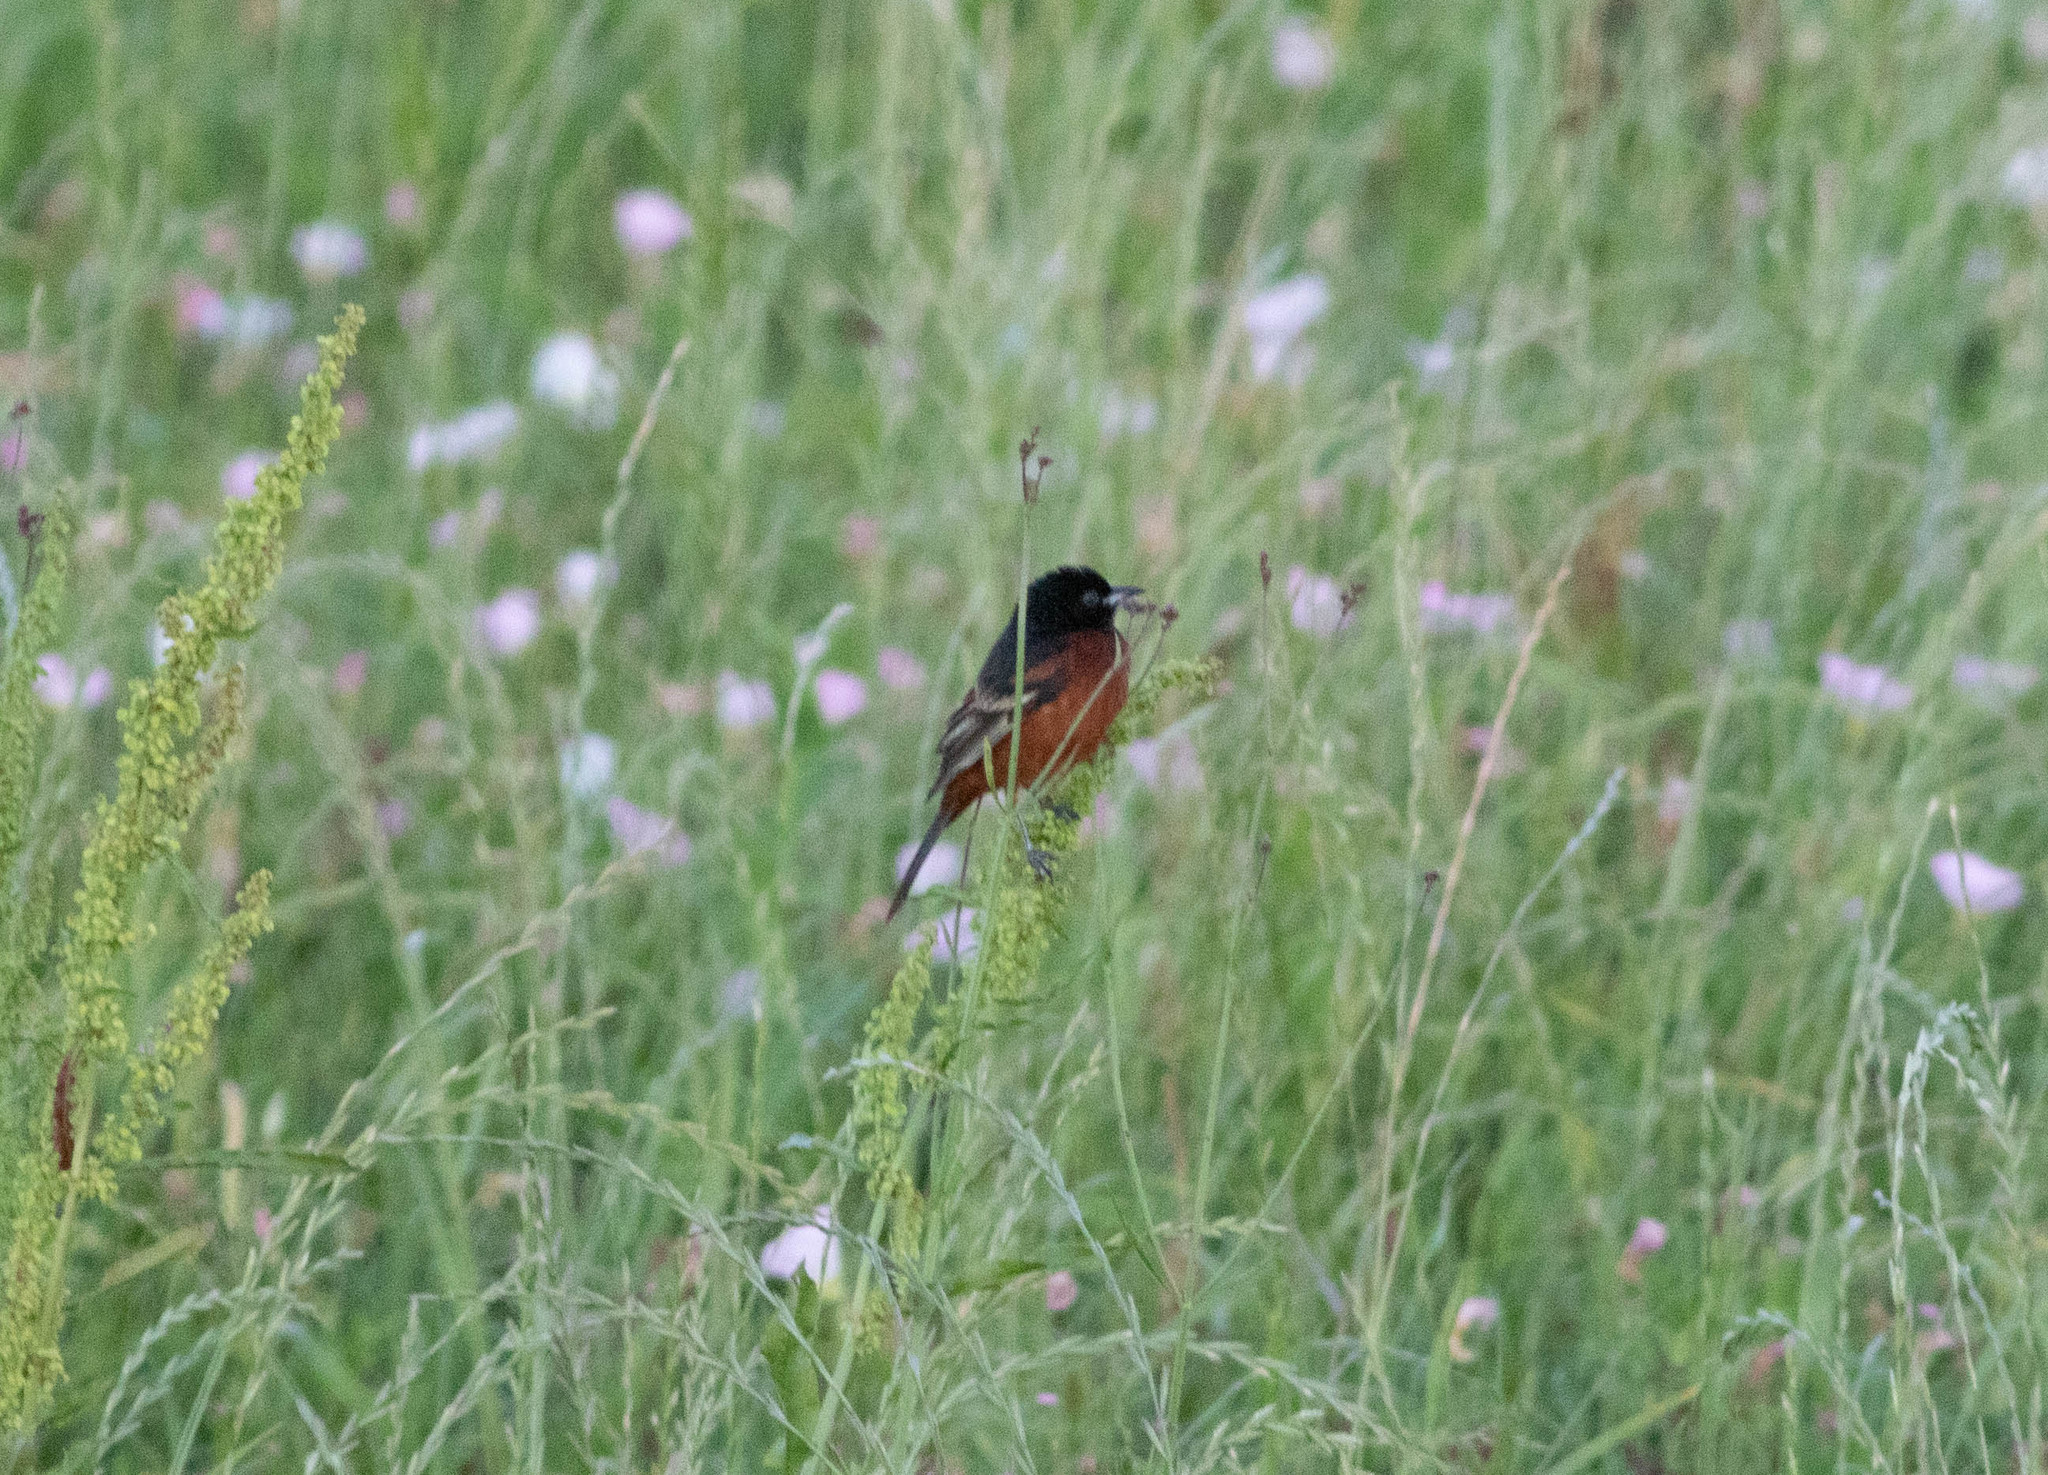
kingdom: Animalia
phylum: Chordata
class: Aves
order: Passeriformes
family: Icteridae
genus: Icterus
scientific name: Icterus spurius
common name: Orchard oriole
